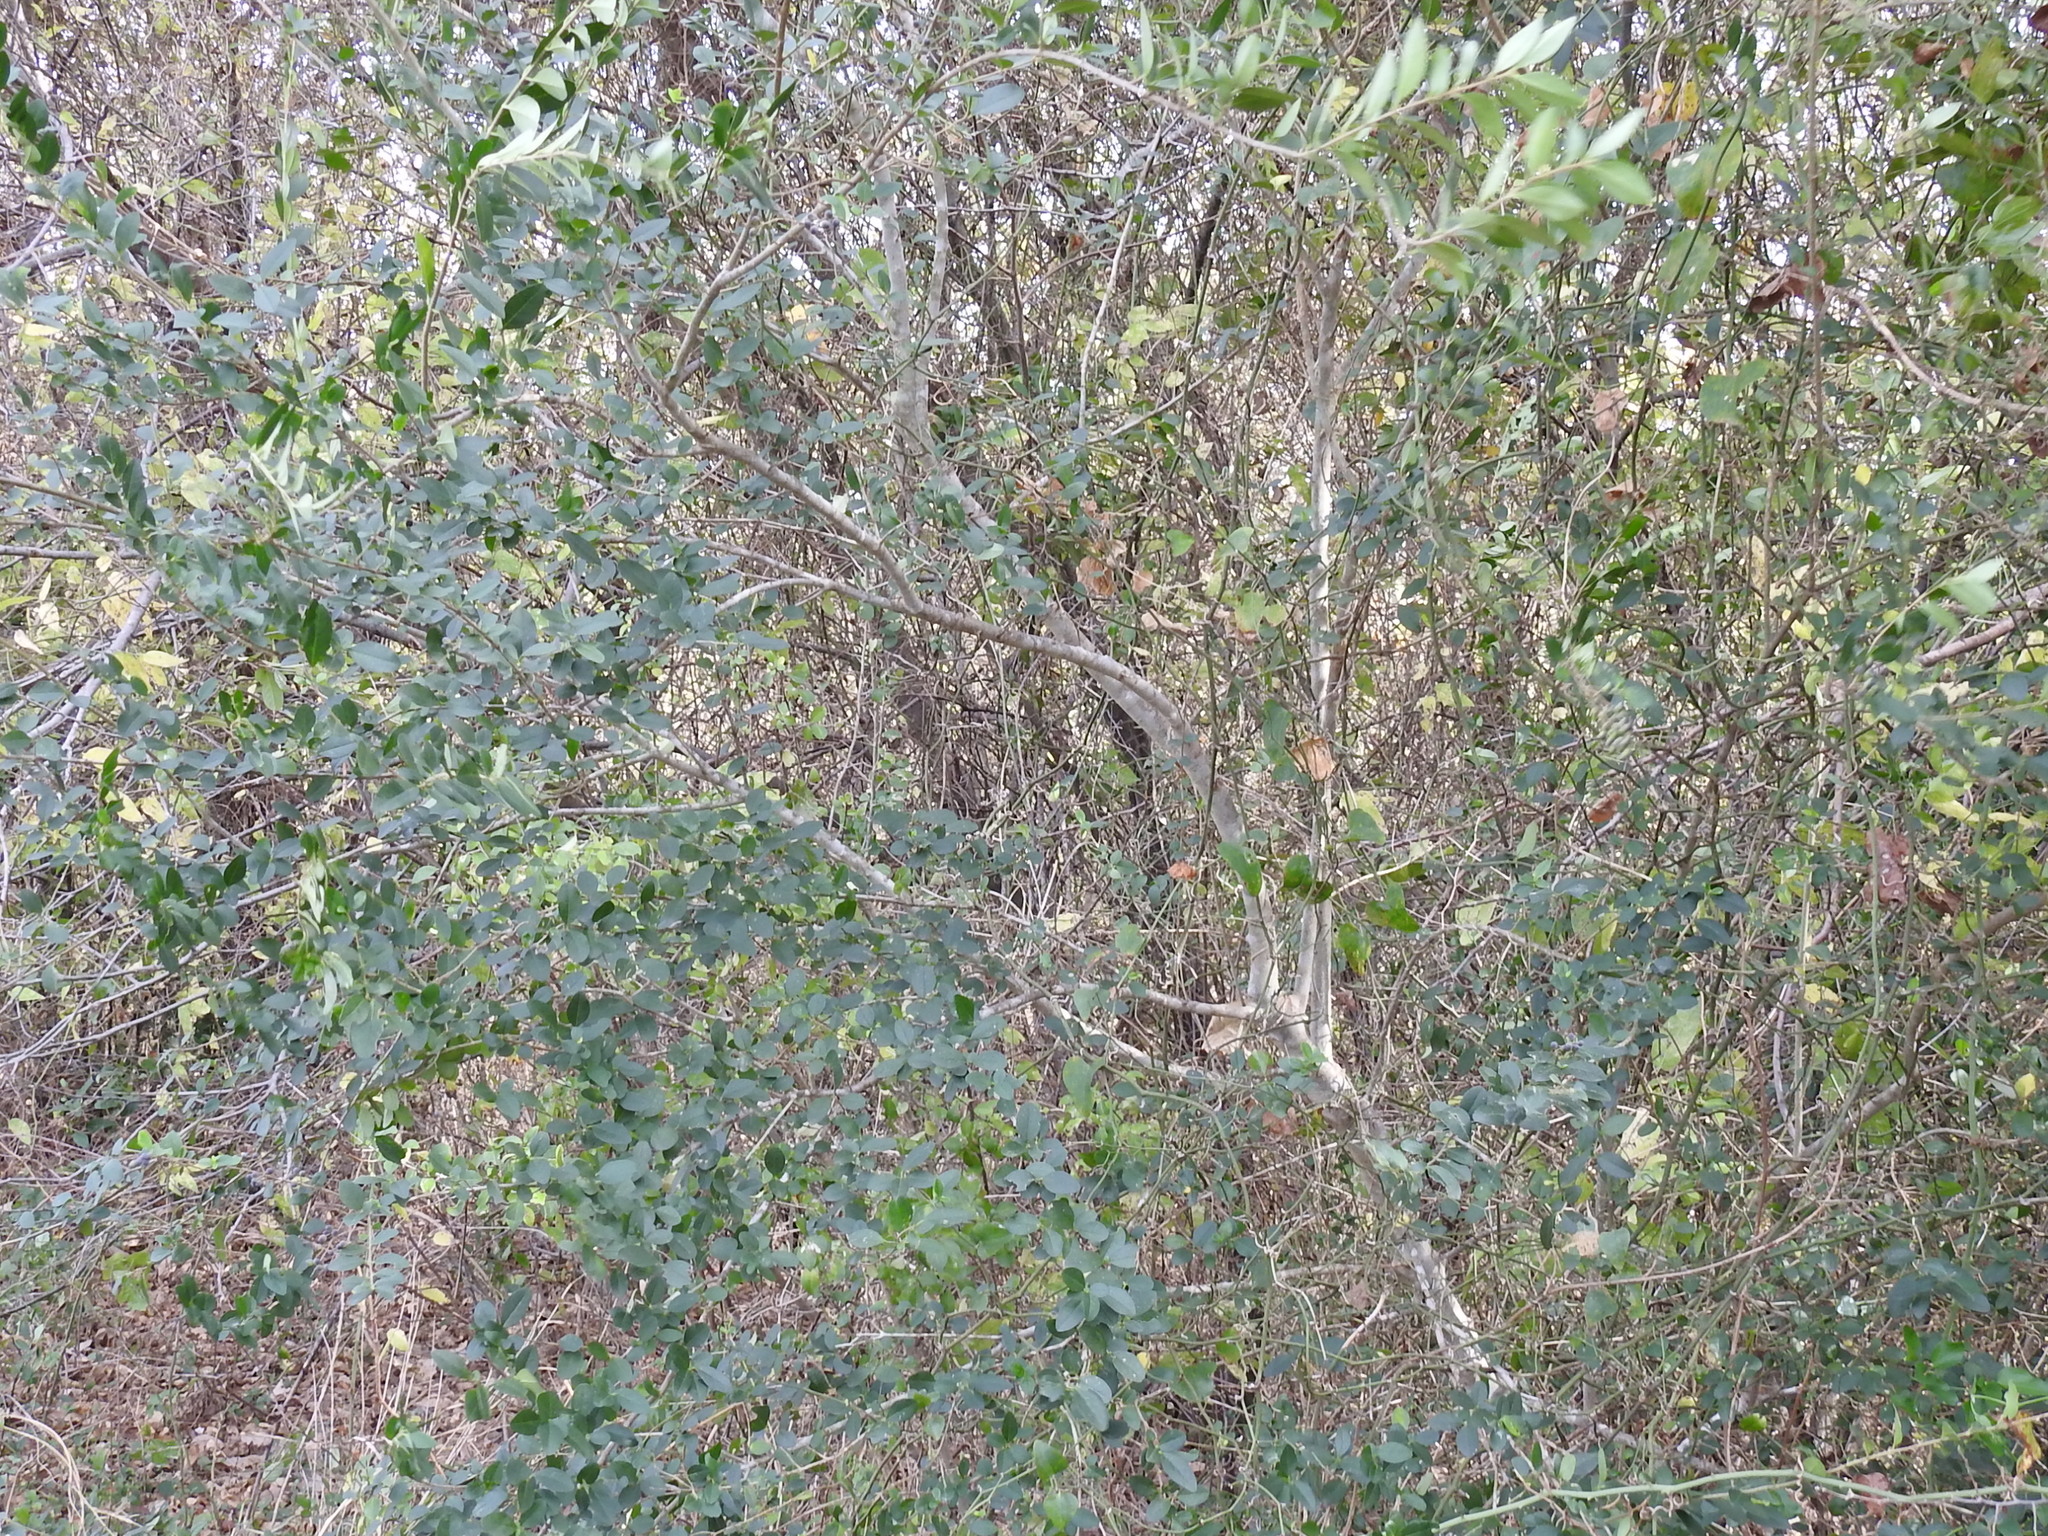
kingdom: Plantae
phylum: Tracheophyta
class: Magnoliopsida
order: Lamiales
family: Oleaceae
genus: Ligustrum
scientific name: Ligustrum sinense
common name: Chinese privet
